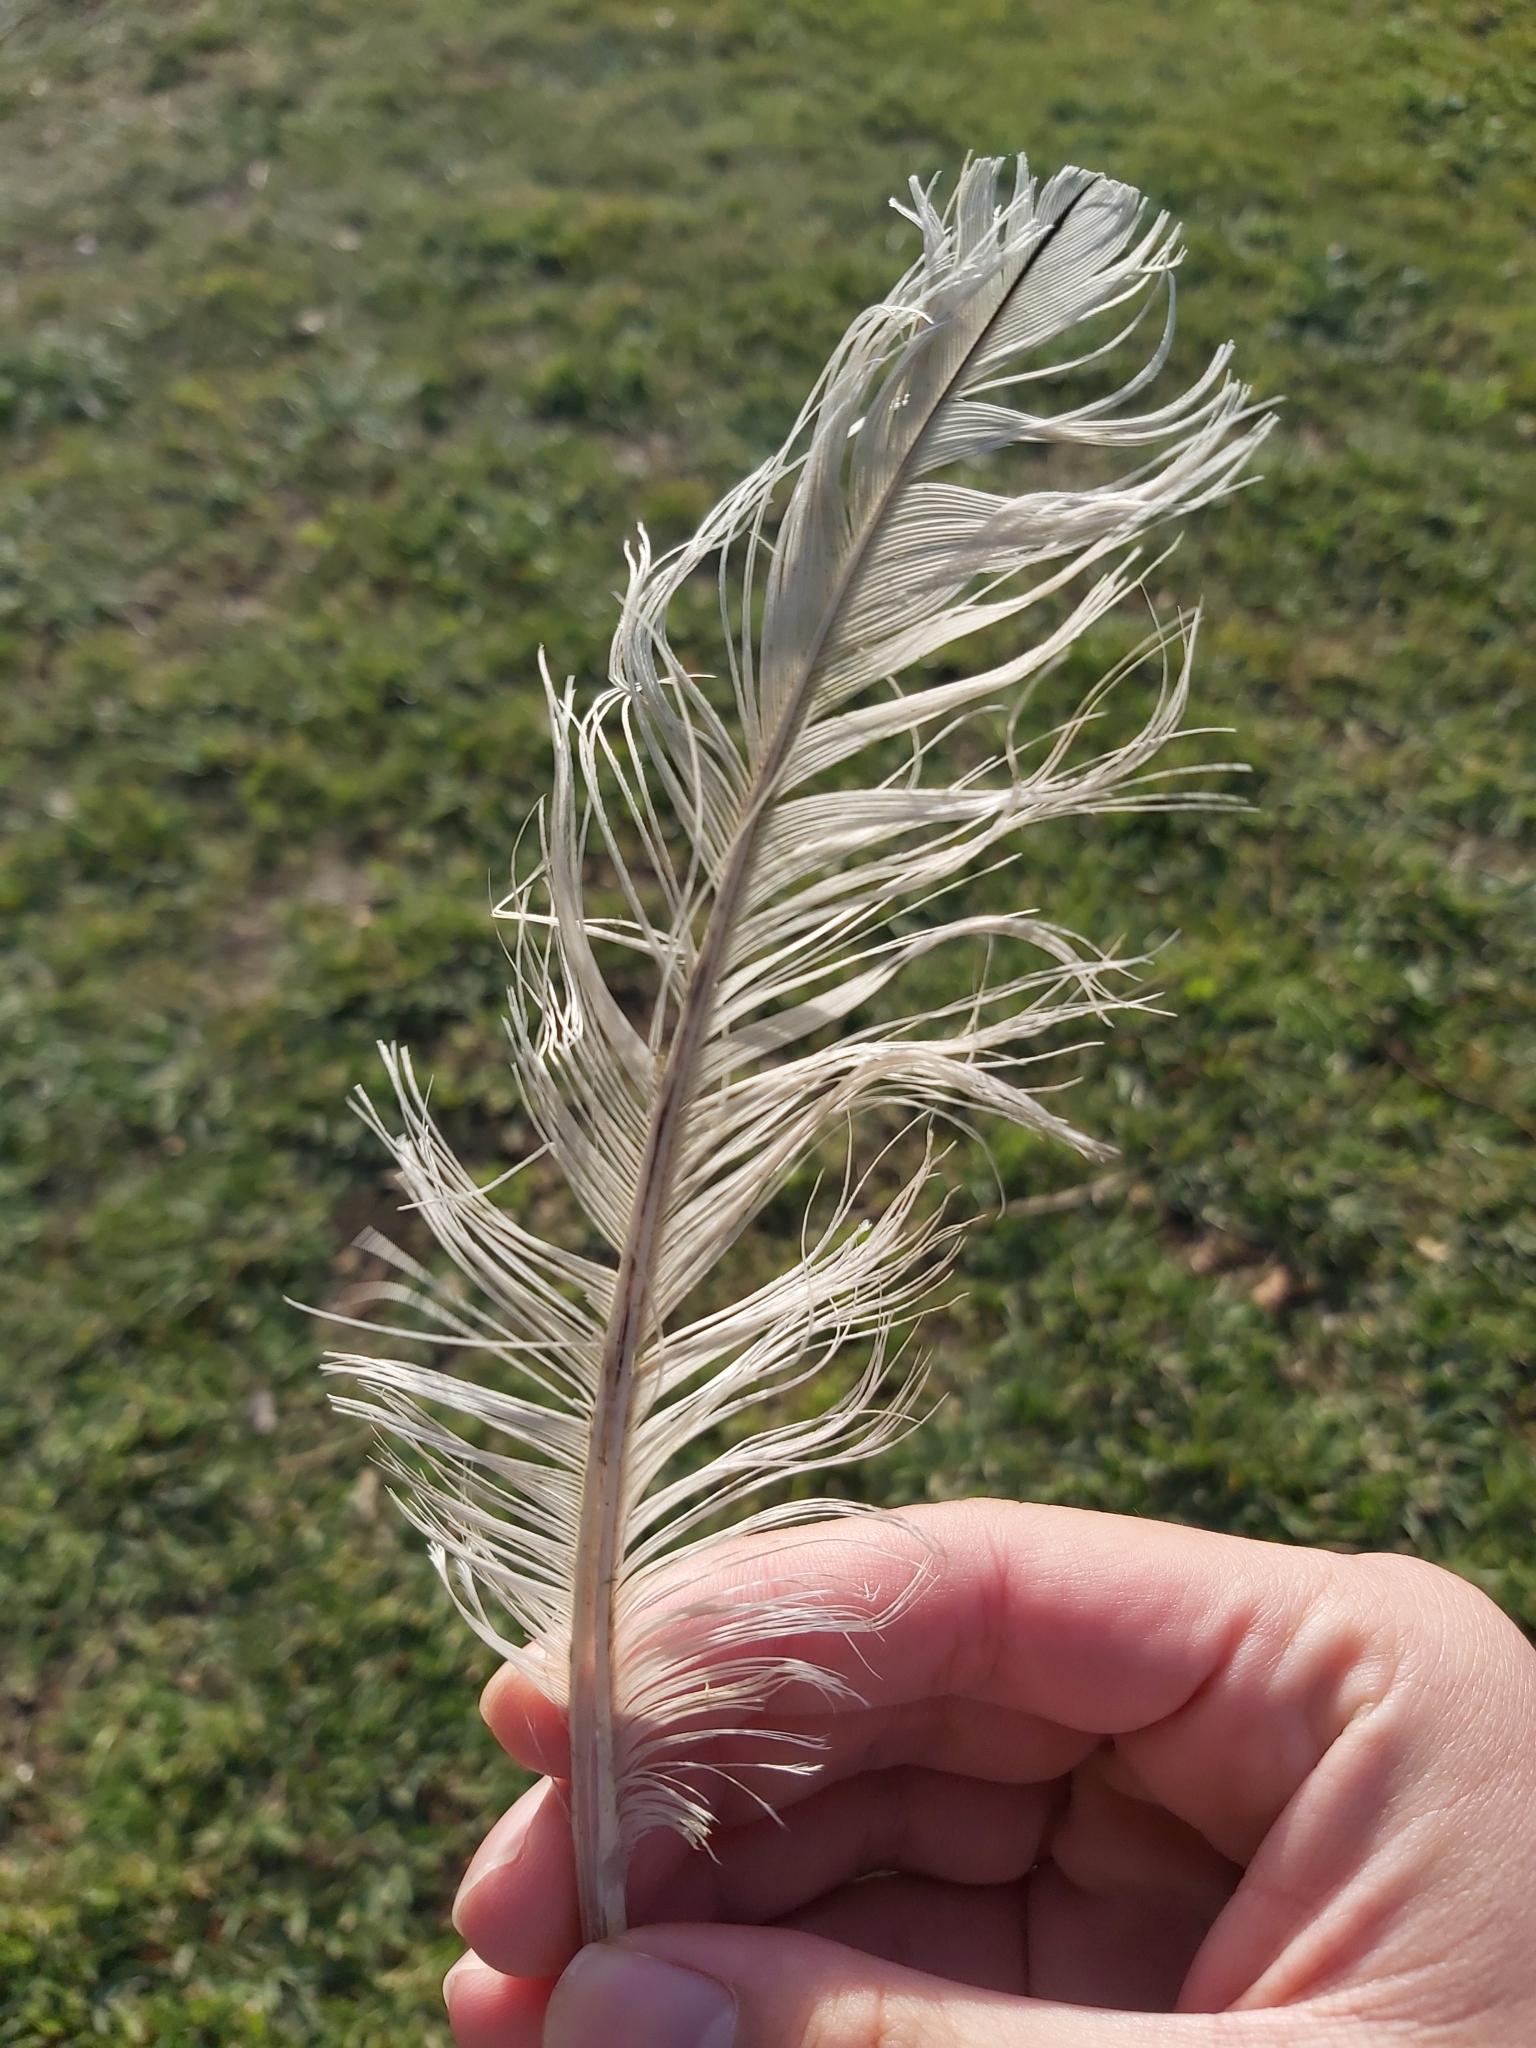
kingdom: Animalia
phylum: Chordata
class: Aves
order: Pelecaniformes
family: Threskiornithidae
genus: Threskiornis
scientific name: Threskiornis molucca
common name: Australian white ibis
